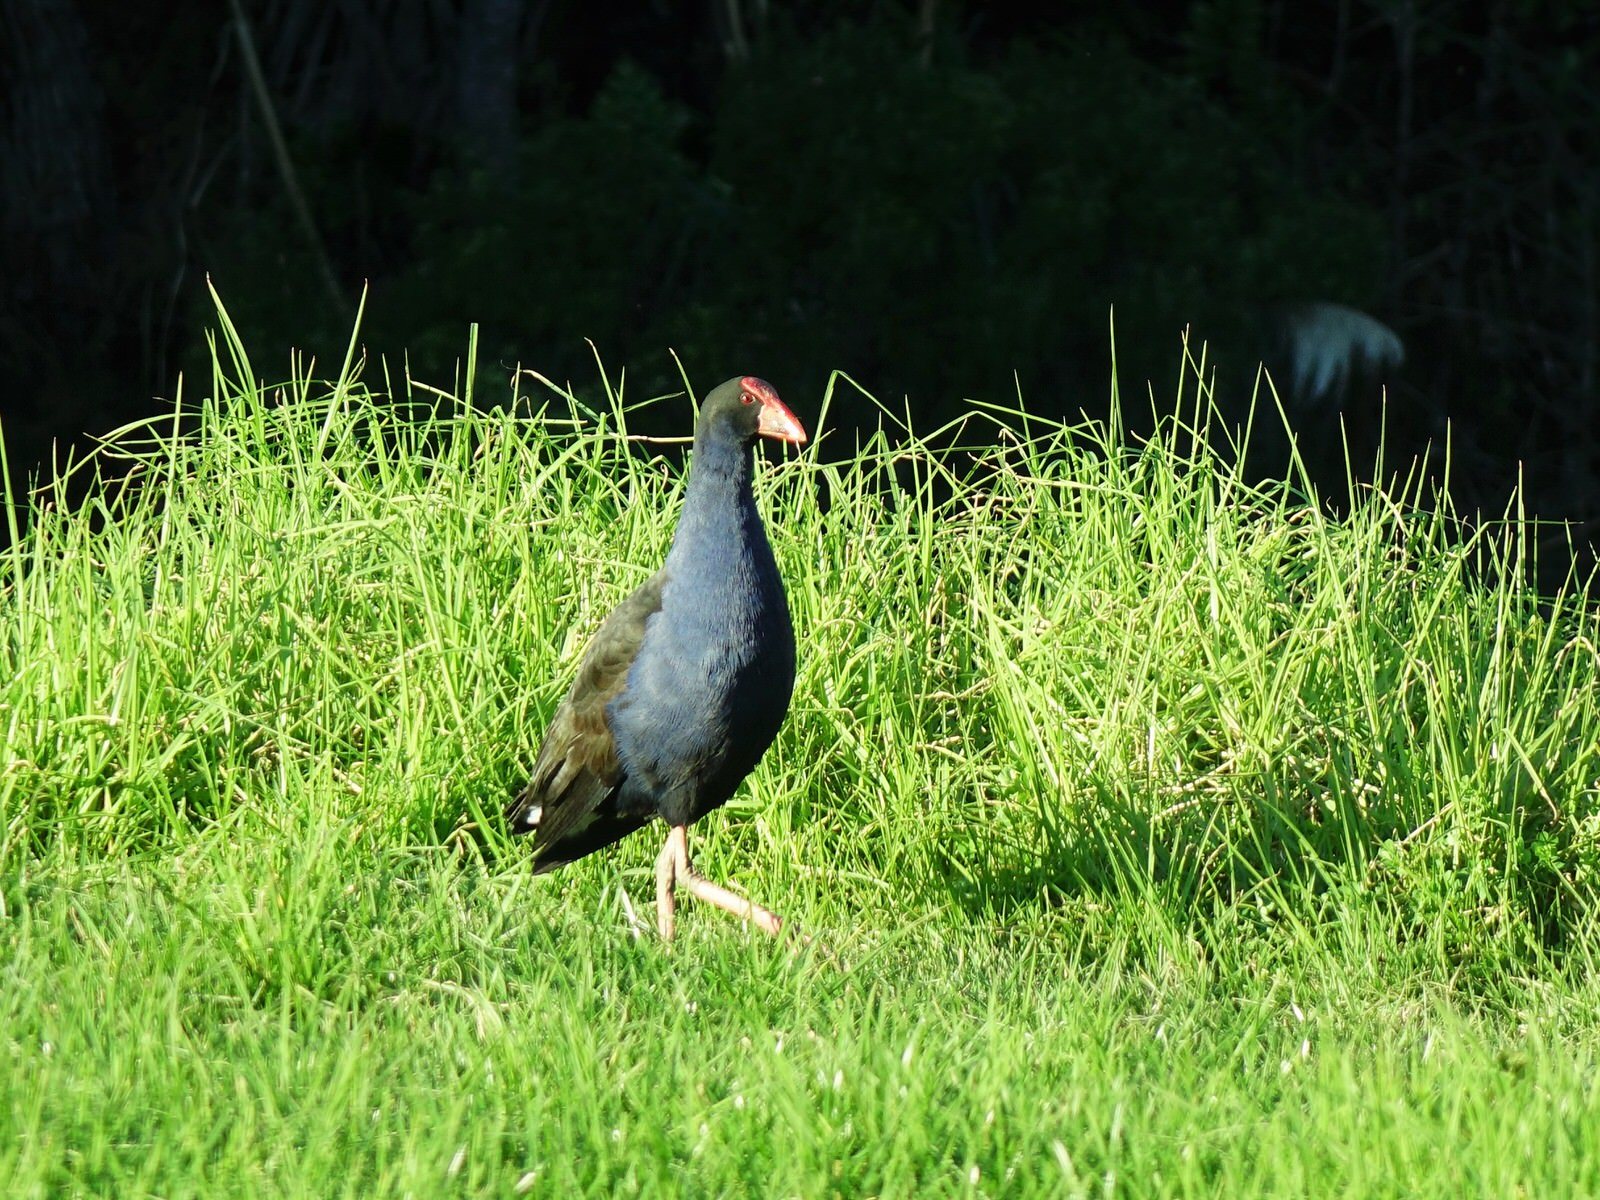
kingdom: Animalia
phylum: Chordata
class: Aves
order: Gruiformes
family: Rallidae
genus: Porphyrio
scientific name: Porphyrio melanotus
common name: Australasian swamphen
